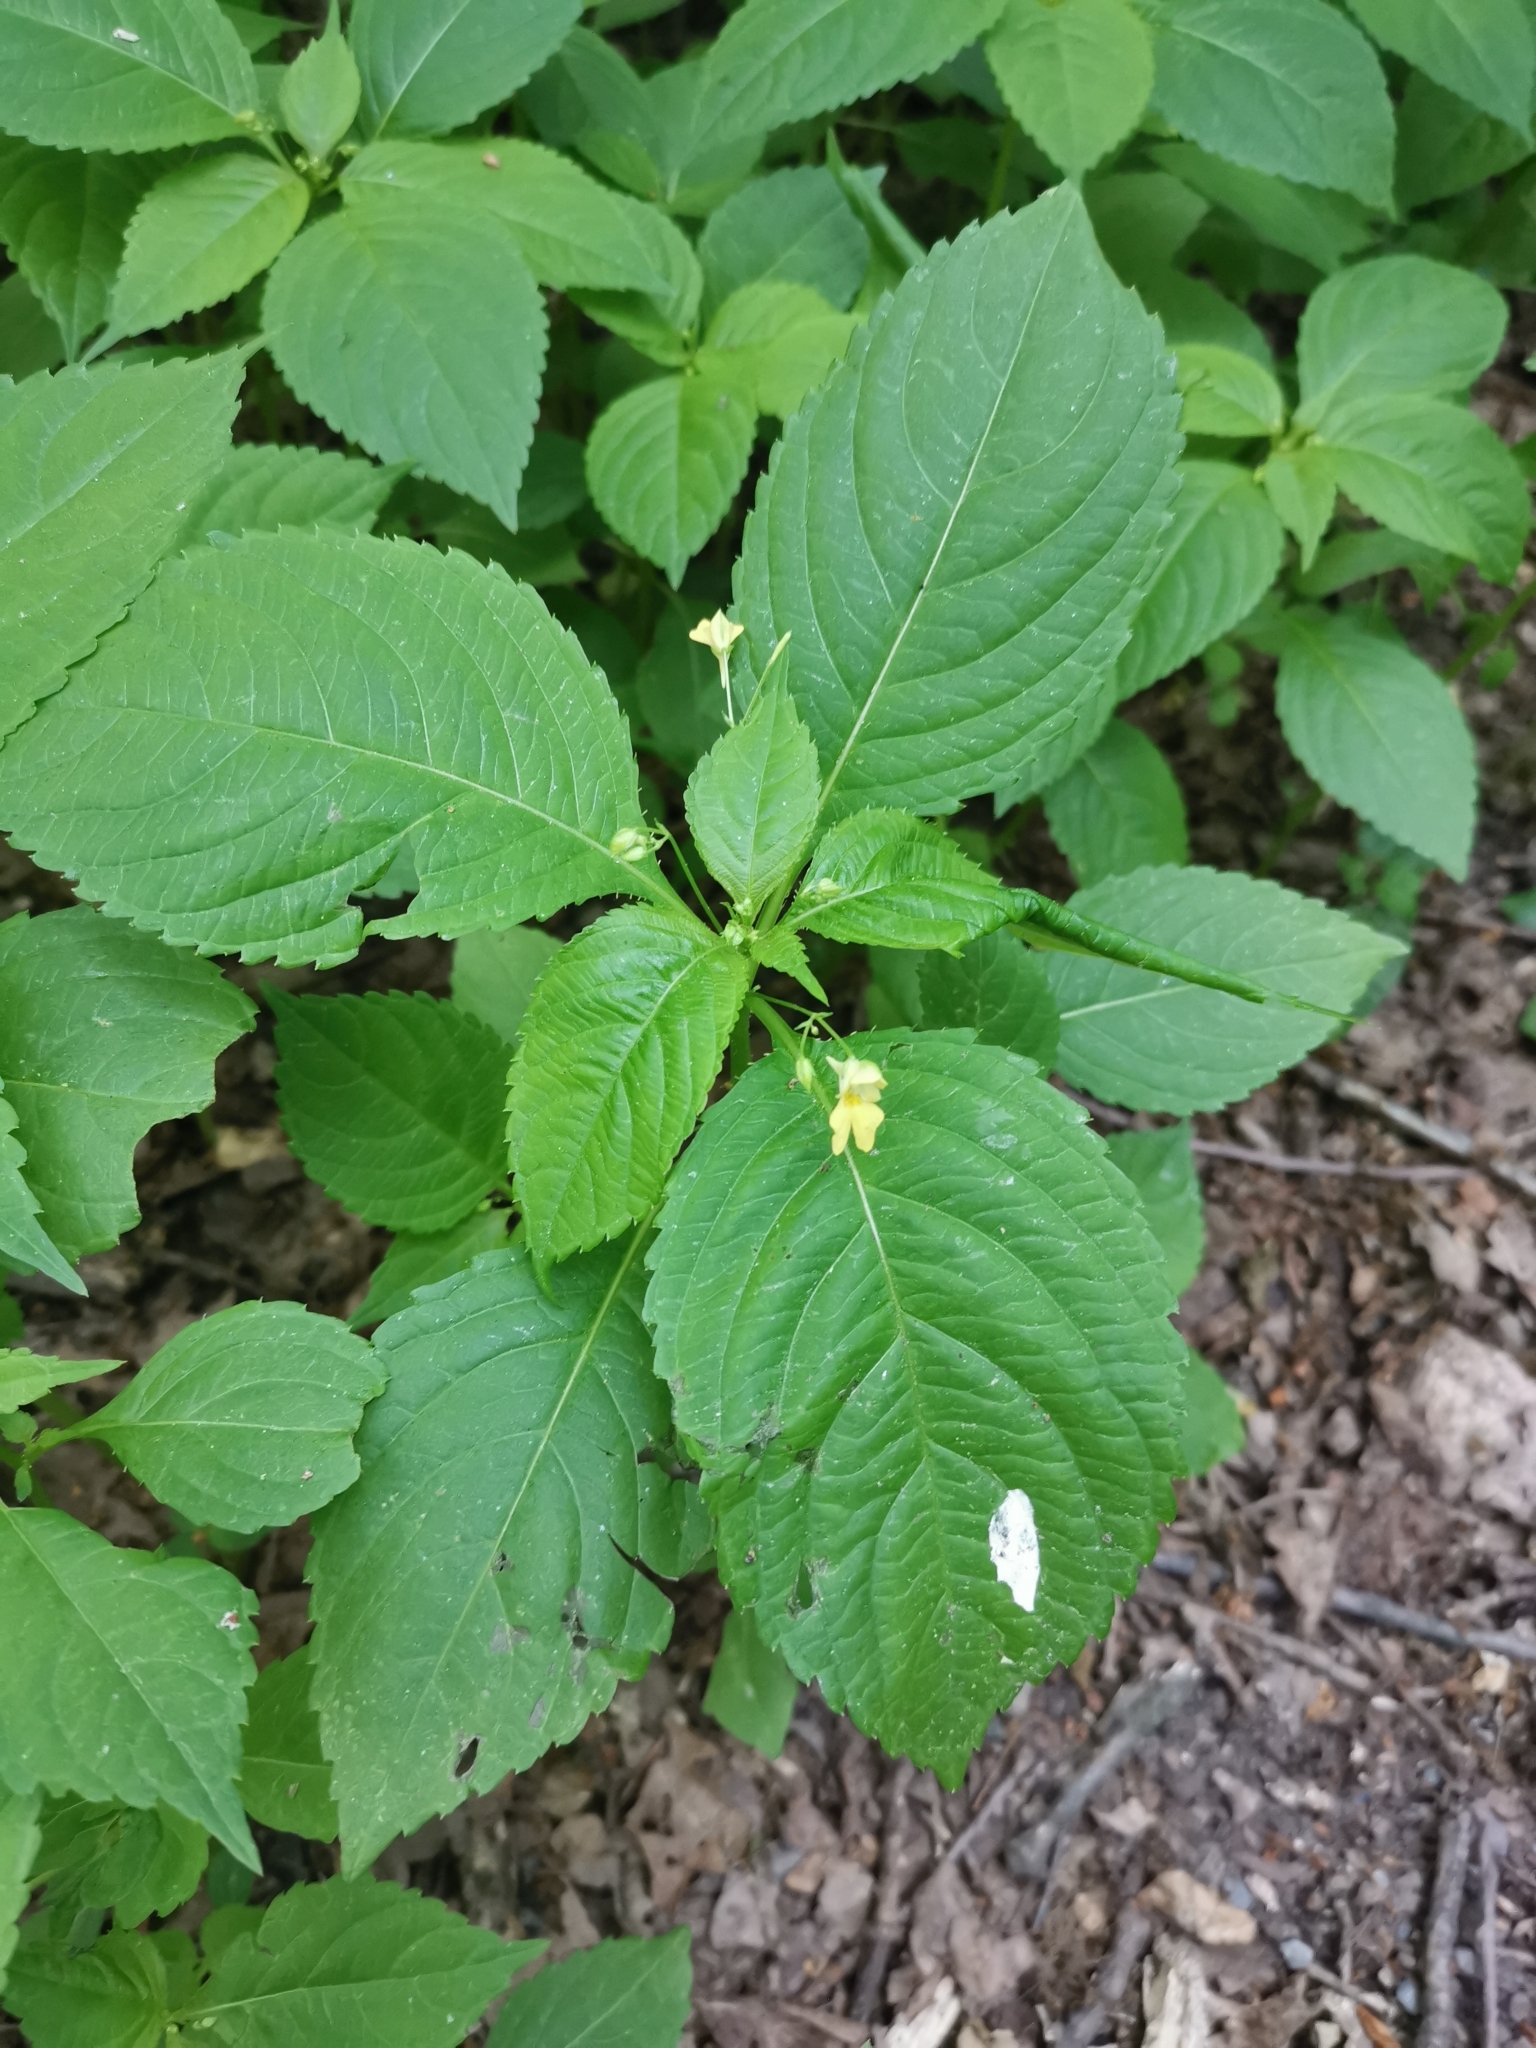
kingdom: Plantae
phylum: Tracheophyta
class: Magnoliopsida
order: Ericales
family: Balsaminaceae
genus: Impatiens
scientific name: Impatiens parviflora
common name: Small balsam
